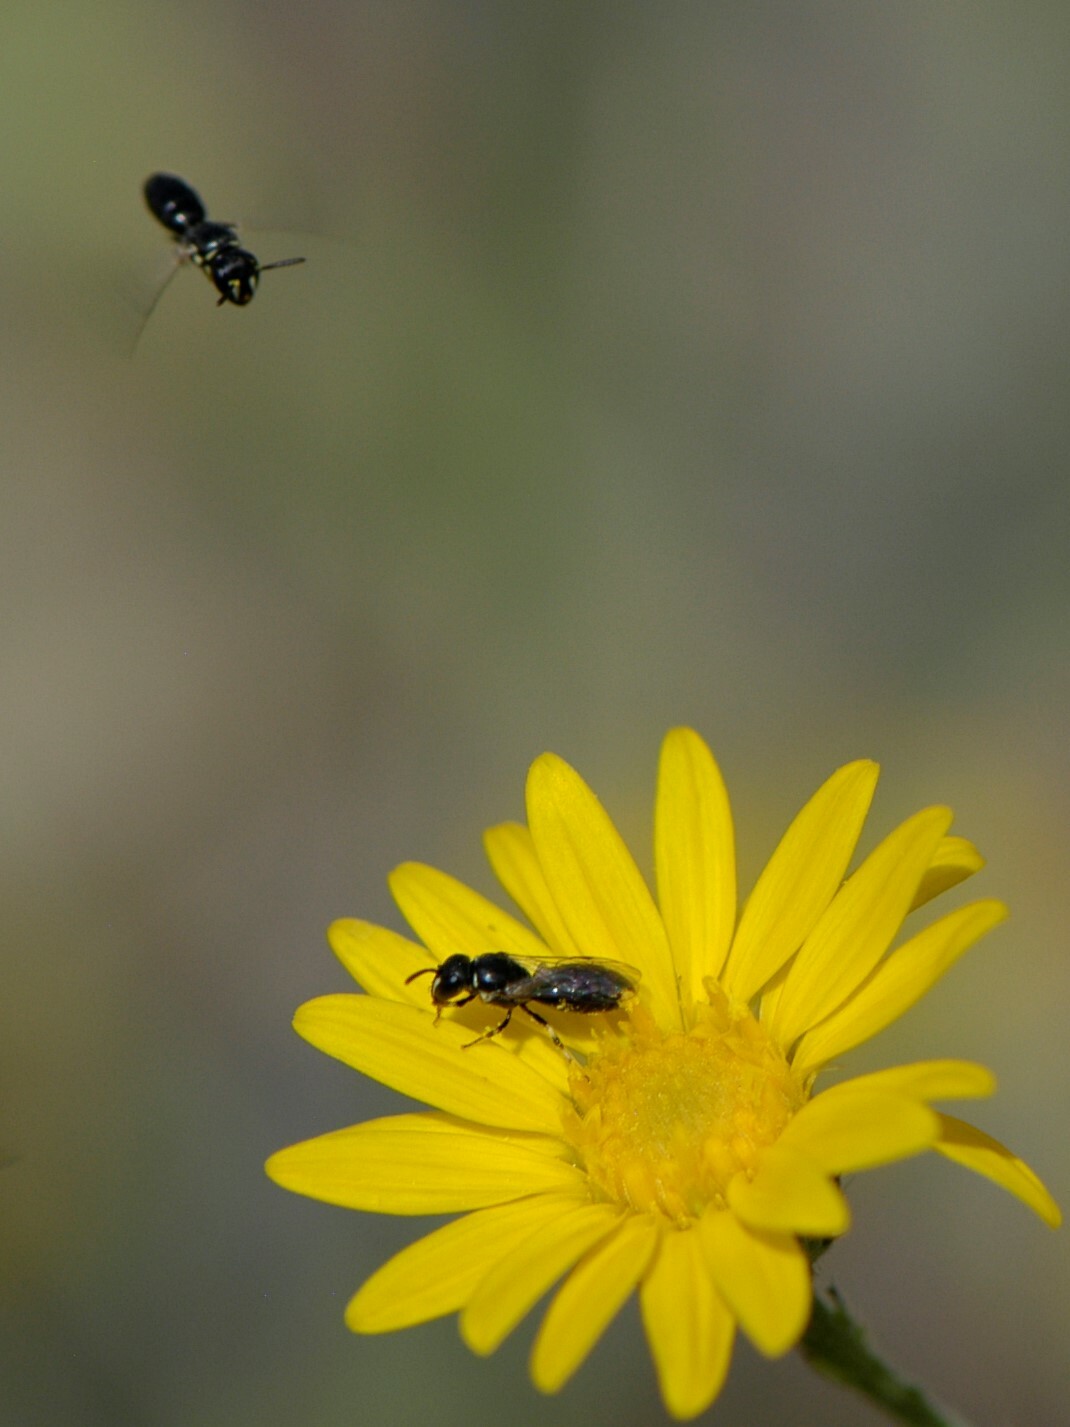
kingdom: Animalia
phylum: Arthropoda
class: Insecta
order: Hymenoptera
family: Colletidae
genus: Hylaeus
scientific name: Hylaeus
